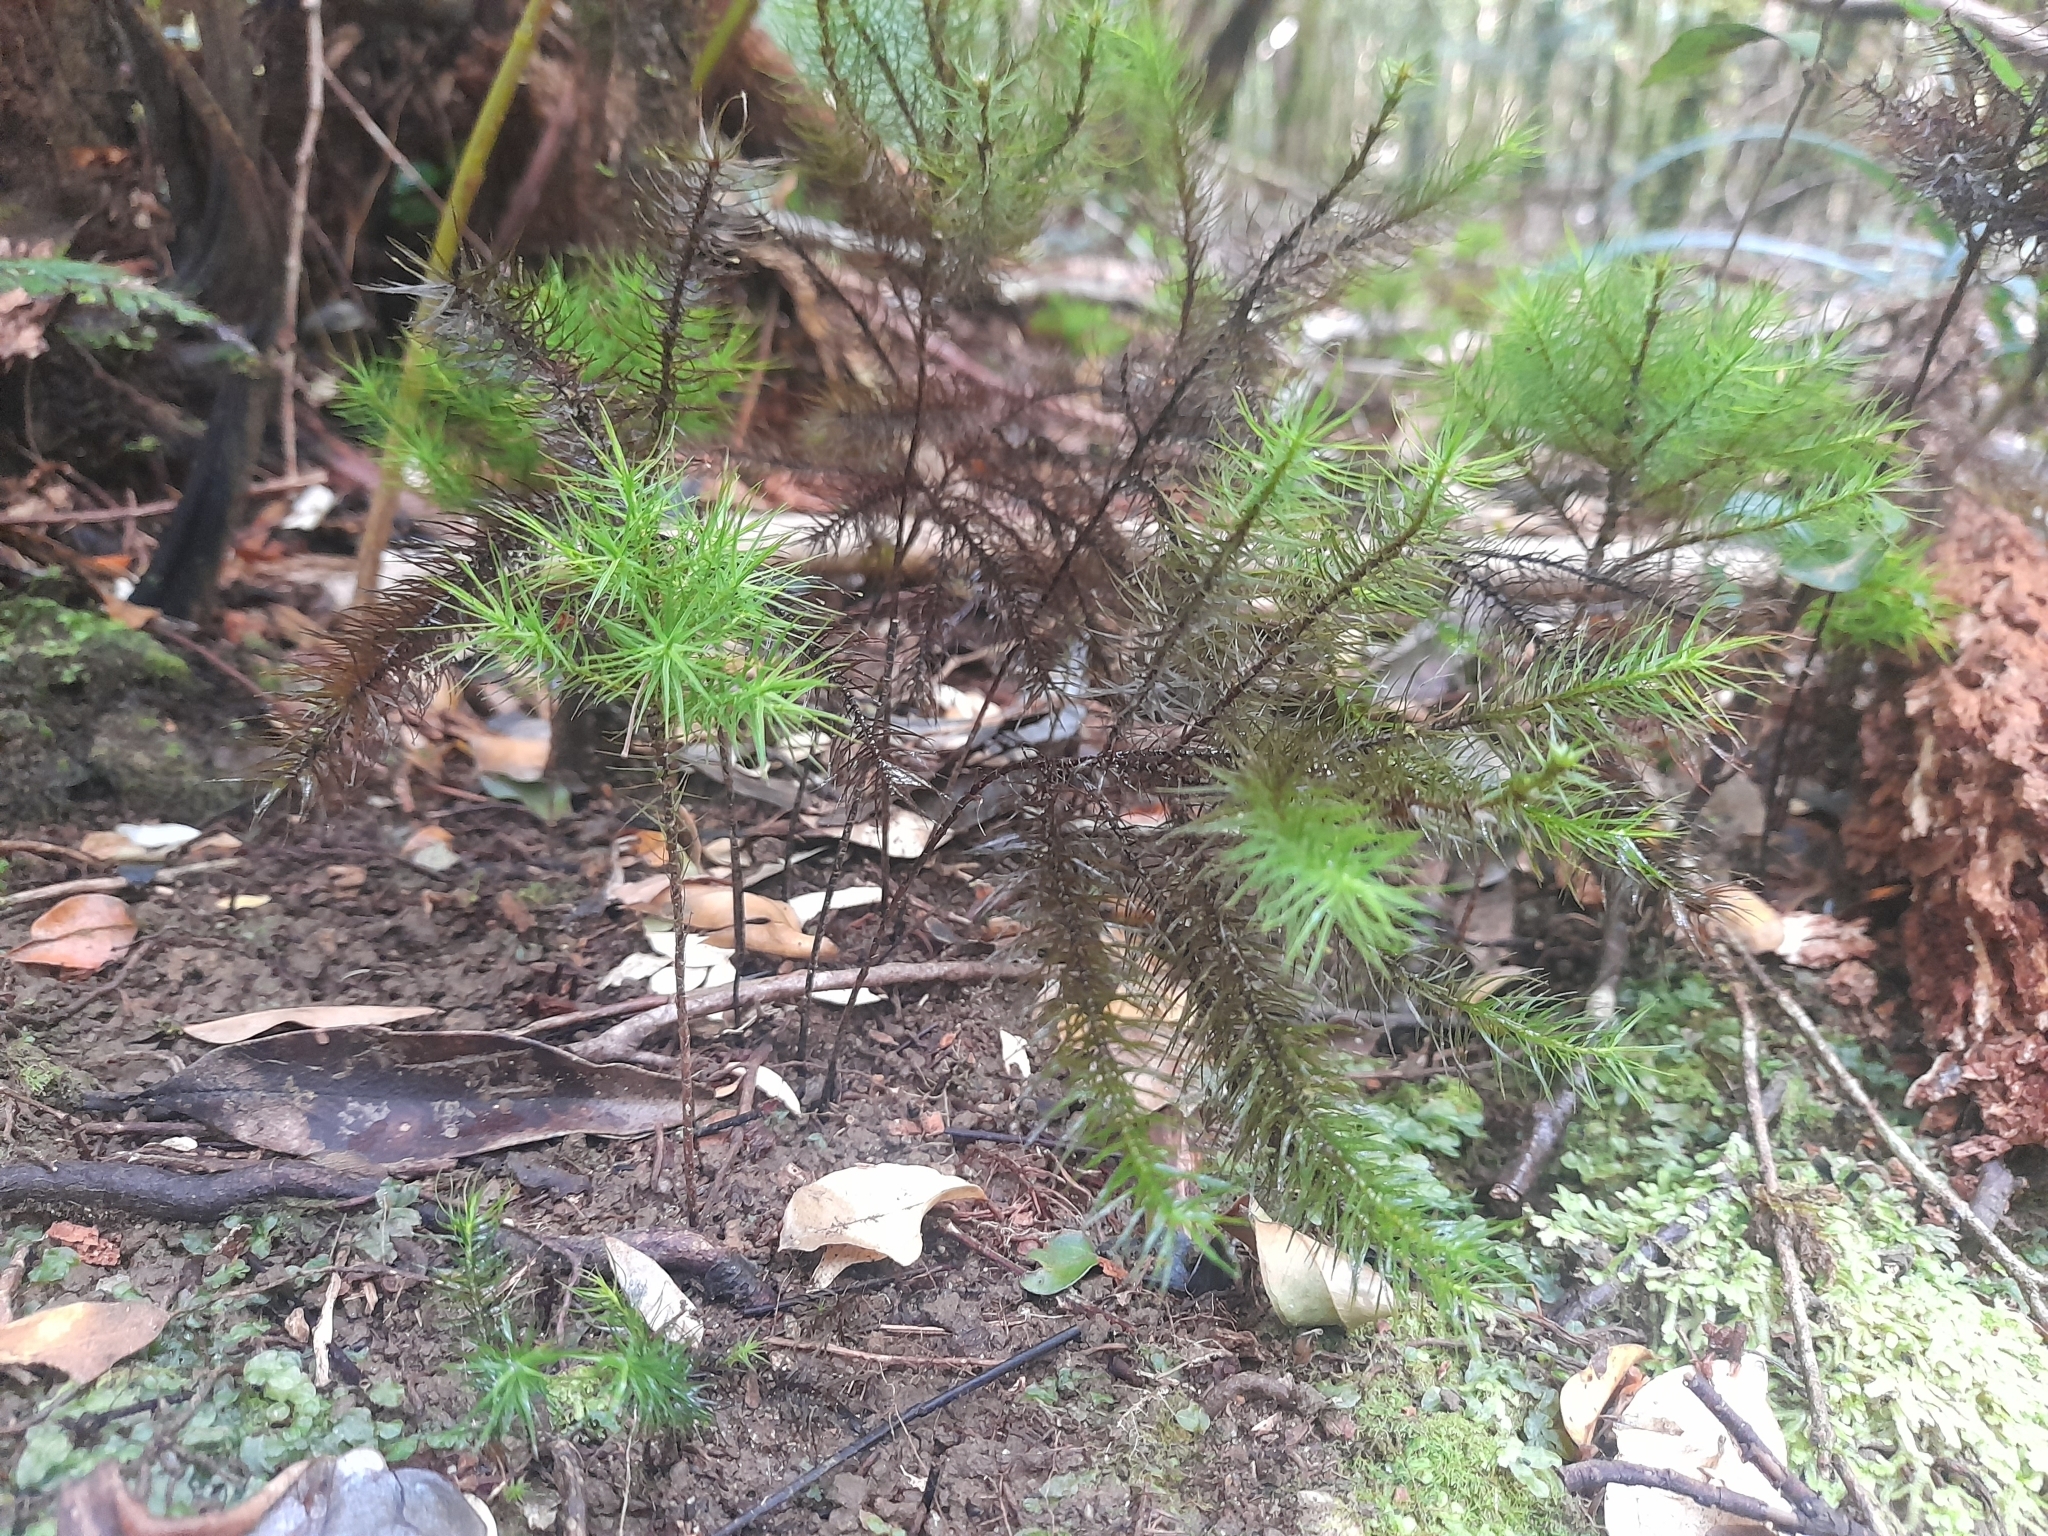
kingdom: Plantae
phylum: Bryophyta
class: Polytrichopsida
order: Polytrichales
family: Polytrichaceae
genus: Dendroligotrichum
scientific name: Dendroligotrichum dendroides
